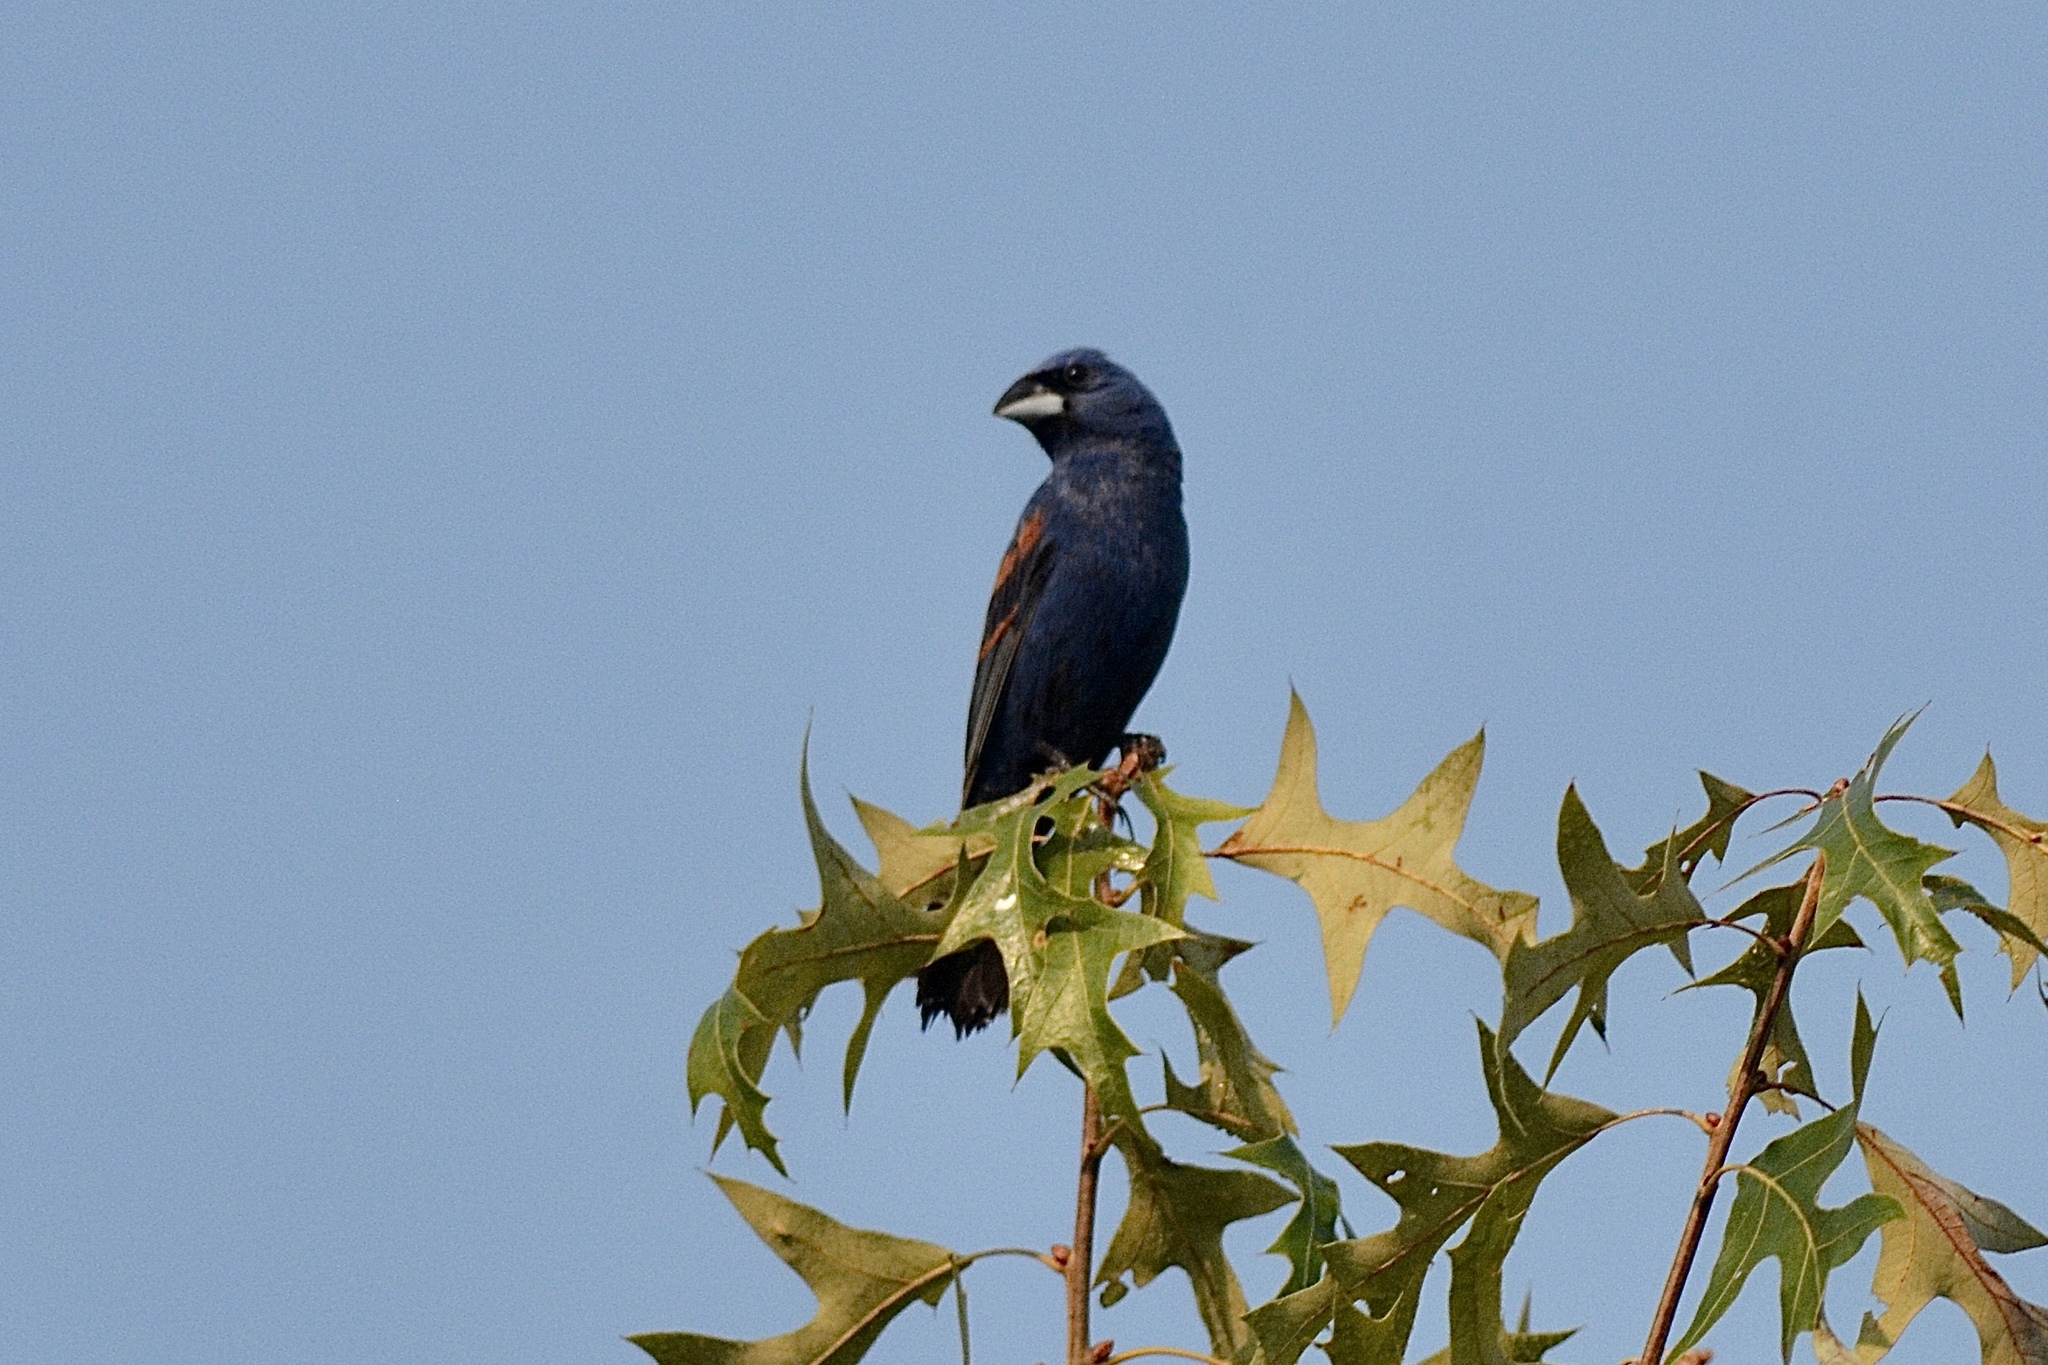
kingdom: Animalia
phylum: Chordata
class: Aves
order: Passeriformes
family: Cardinalidae
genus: Passerina
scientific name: Passerina caerulea
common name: Blue grosbeak
